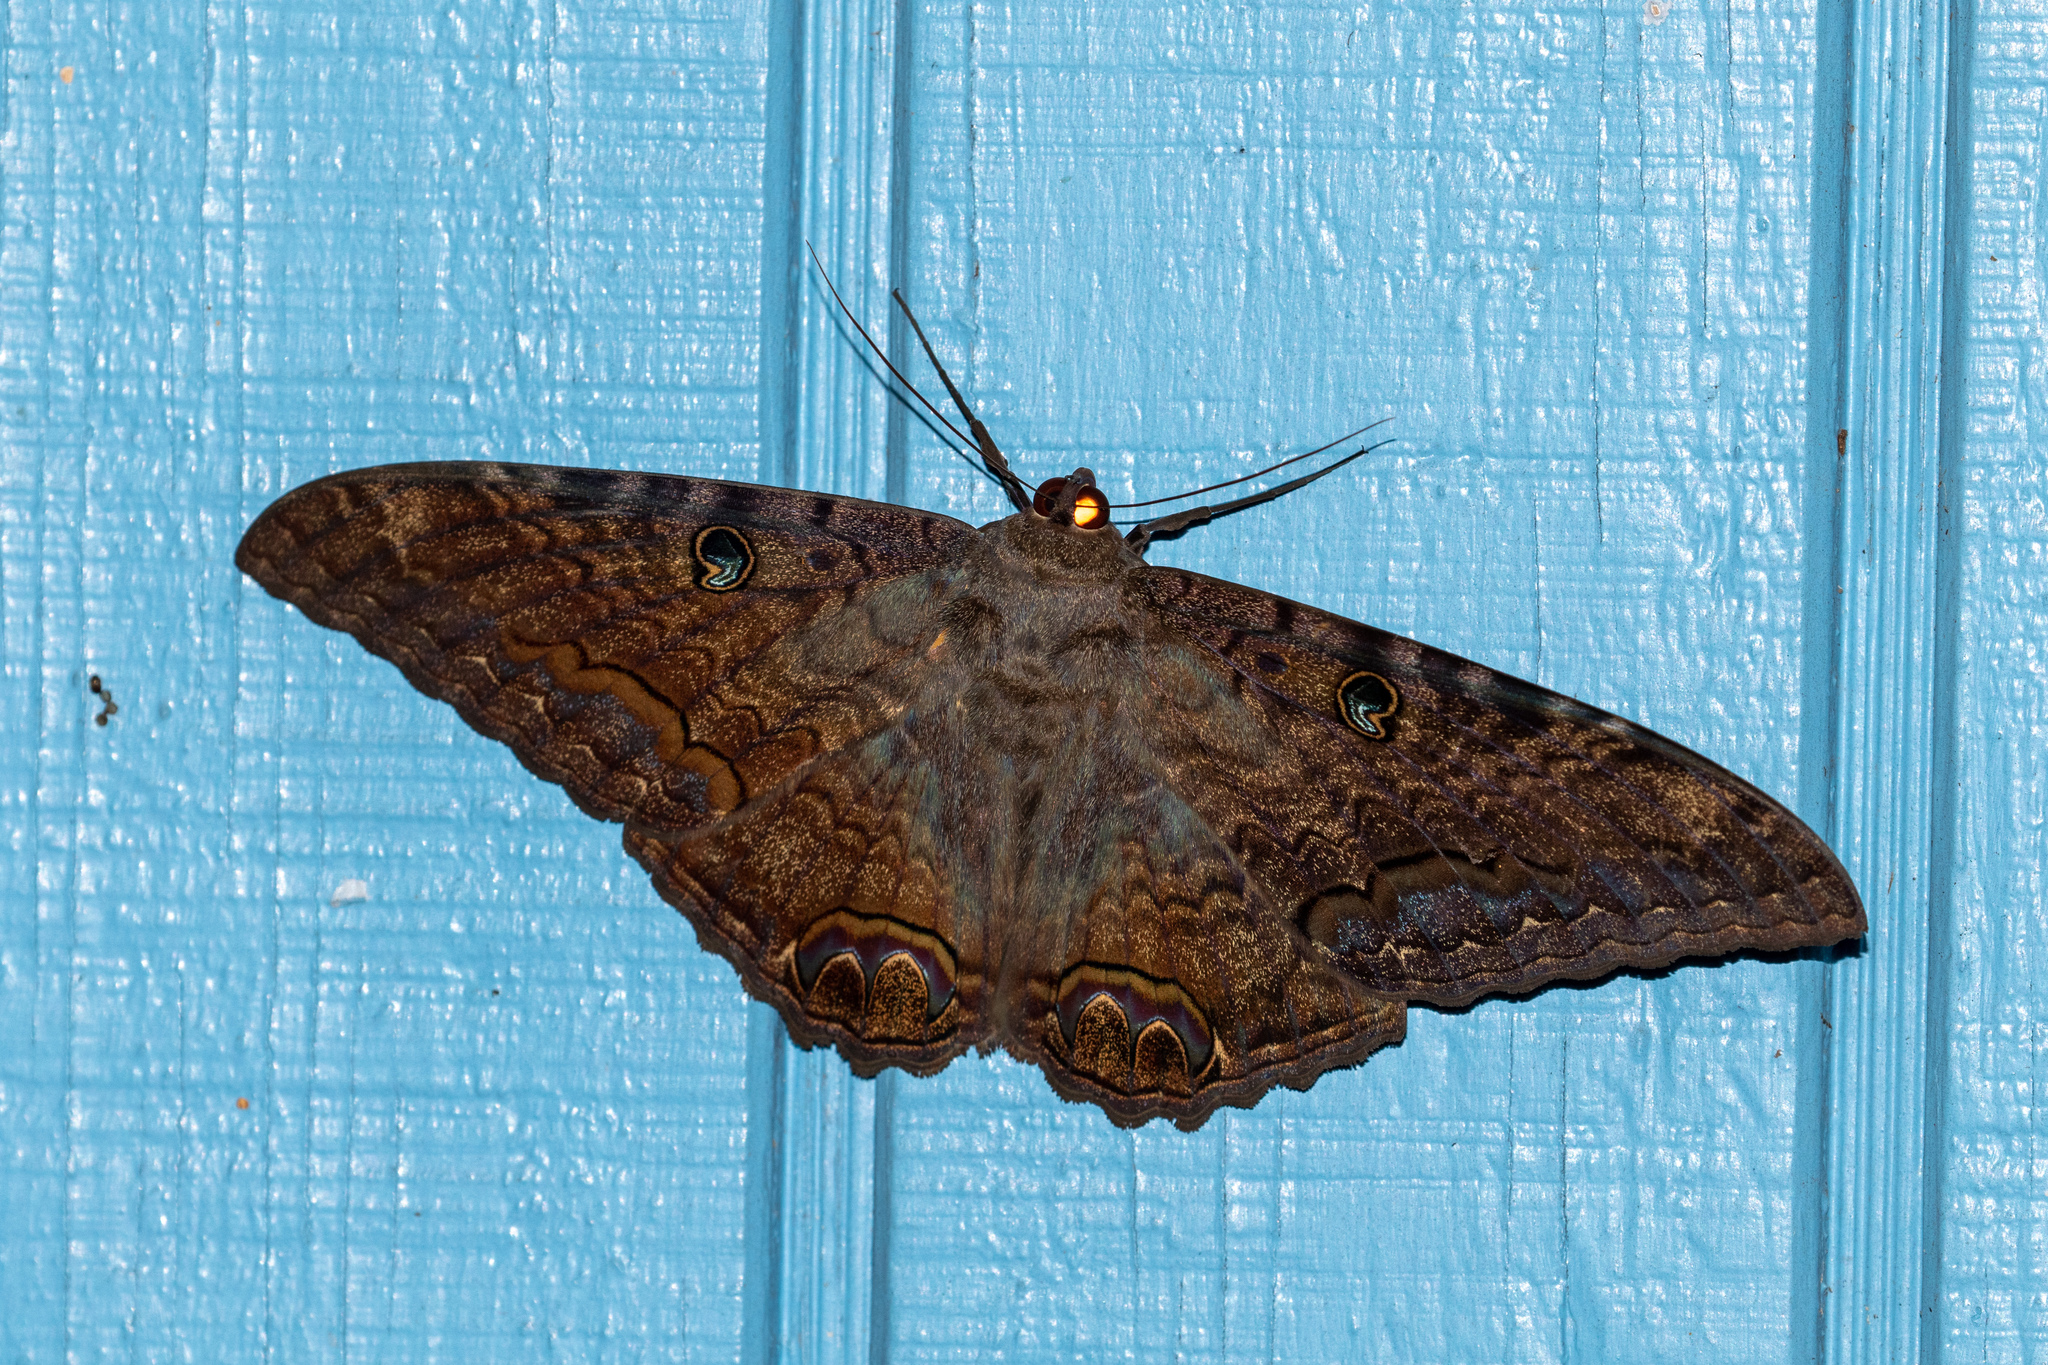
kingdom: Animalia
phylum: Arthropoda
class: Insecta
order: Lepidoptera
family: Erebidae
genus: Ascalapha
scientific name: Ascalapha odorata
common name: Black witch
